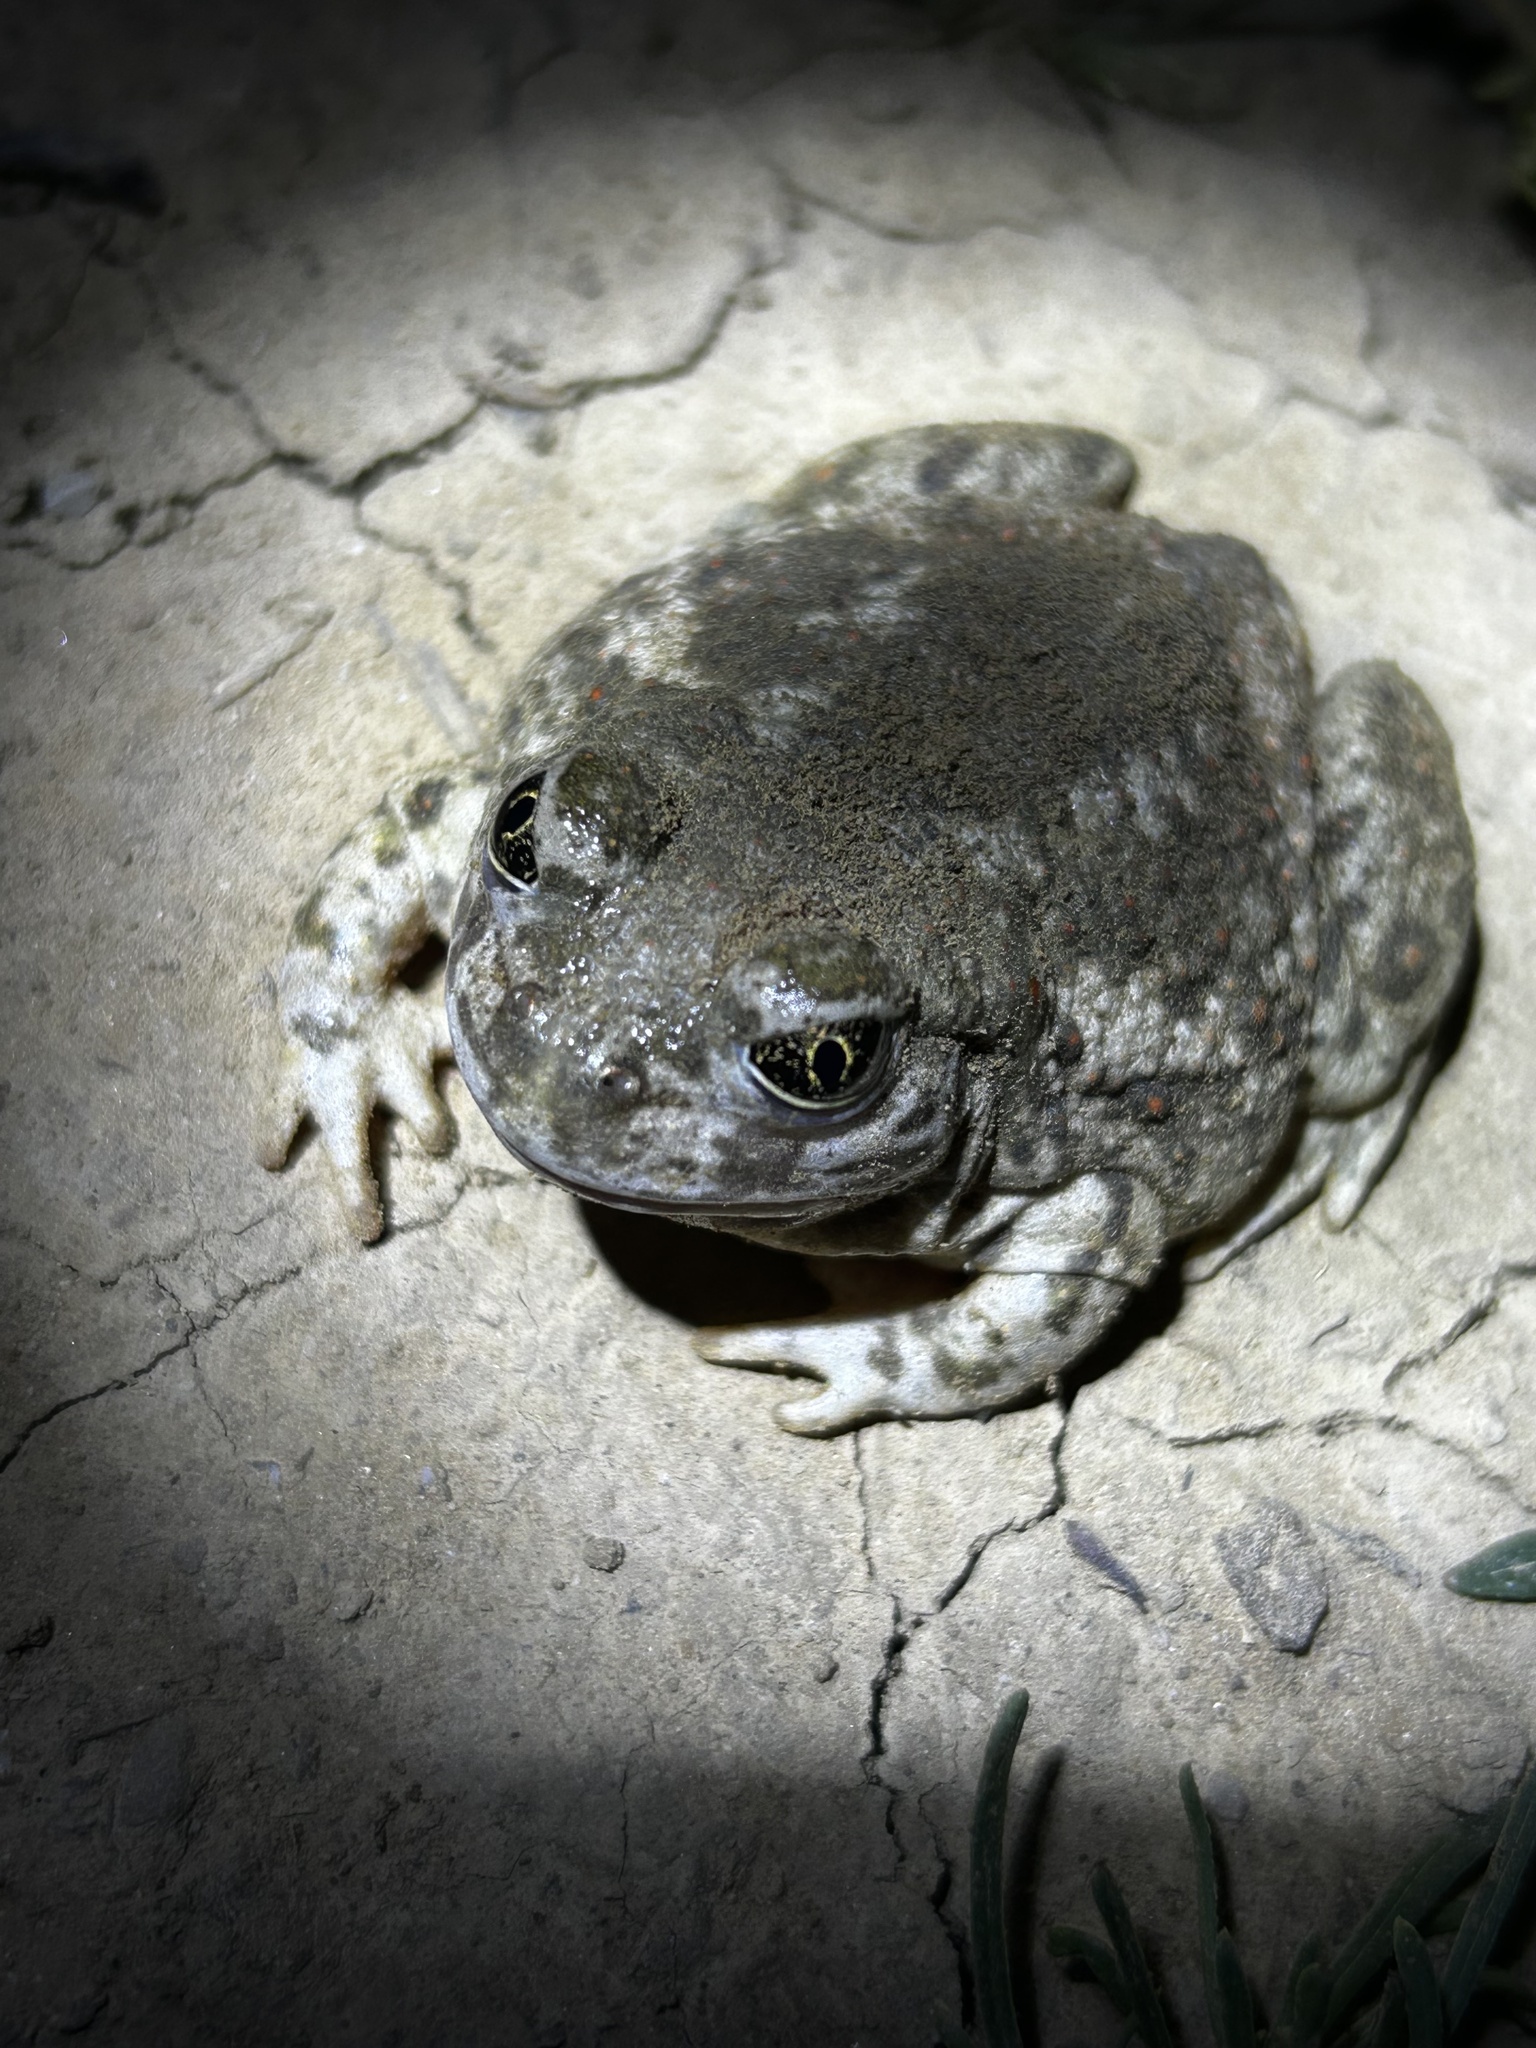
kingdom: Animalia
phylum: Chordata
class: Amphibia
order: Anura
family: Scaphiopodidae
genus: Spea
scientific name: Spea hammondii
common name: Western spadefoot toad
